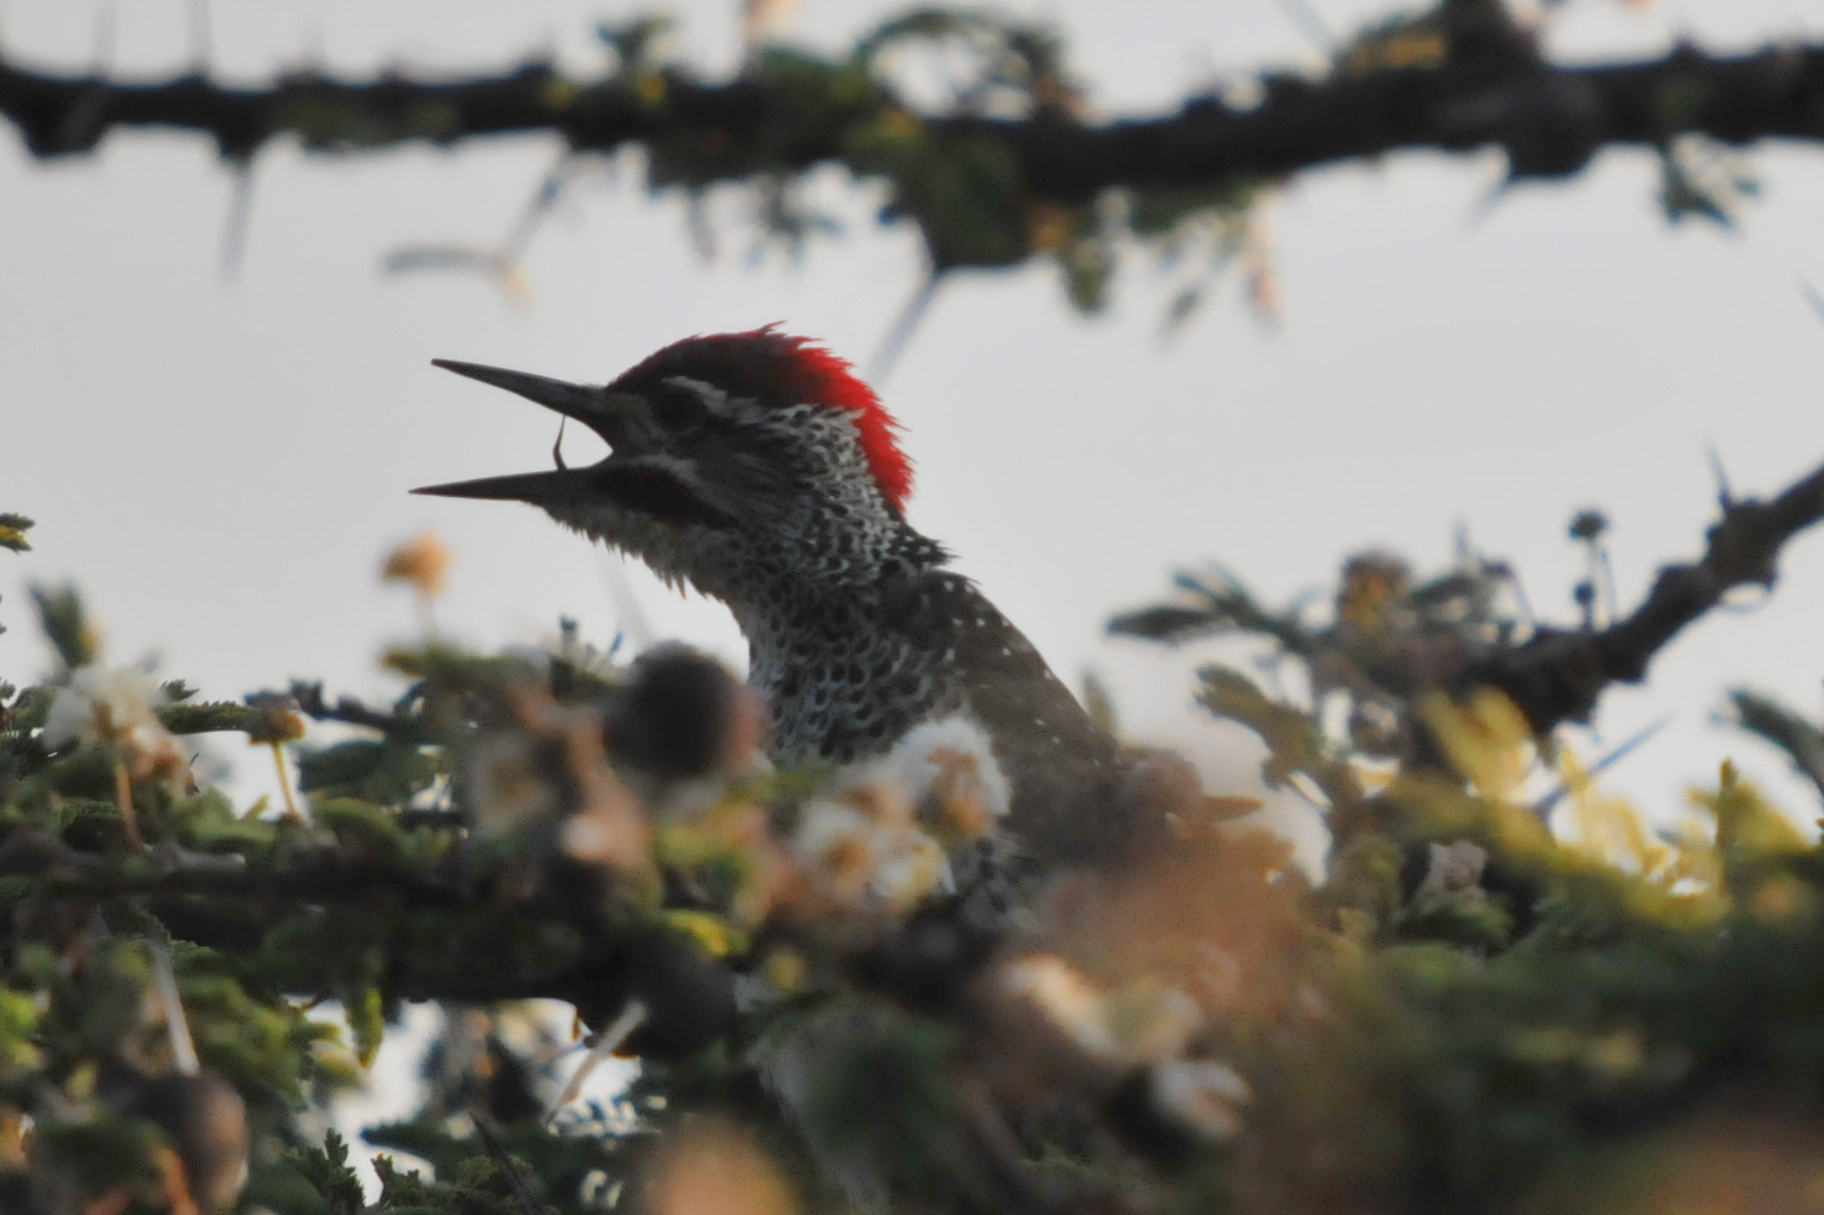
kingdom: Animalia
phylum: Chordata
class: Aves
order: Piciformes
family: Picidae
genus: Campethera
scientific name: Campethera nubica
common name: Nubian woodpecker
